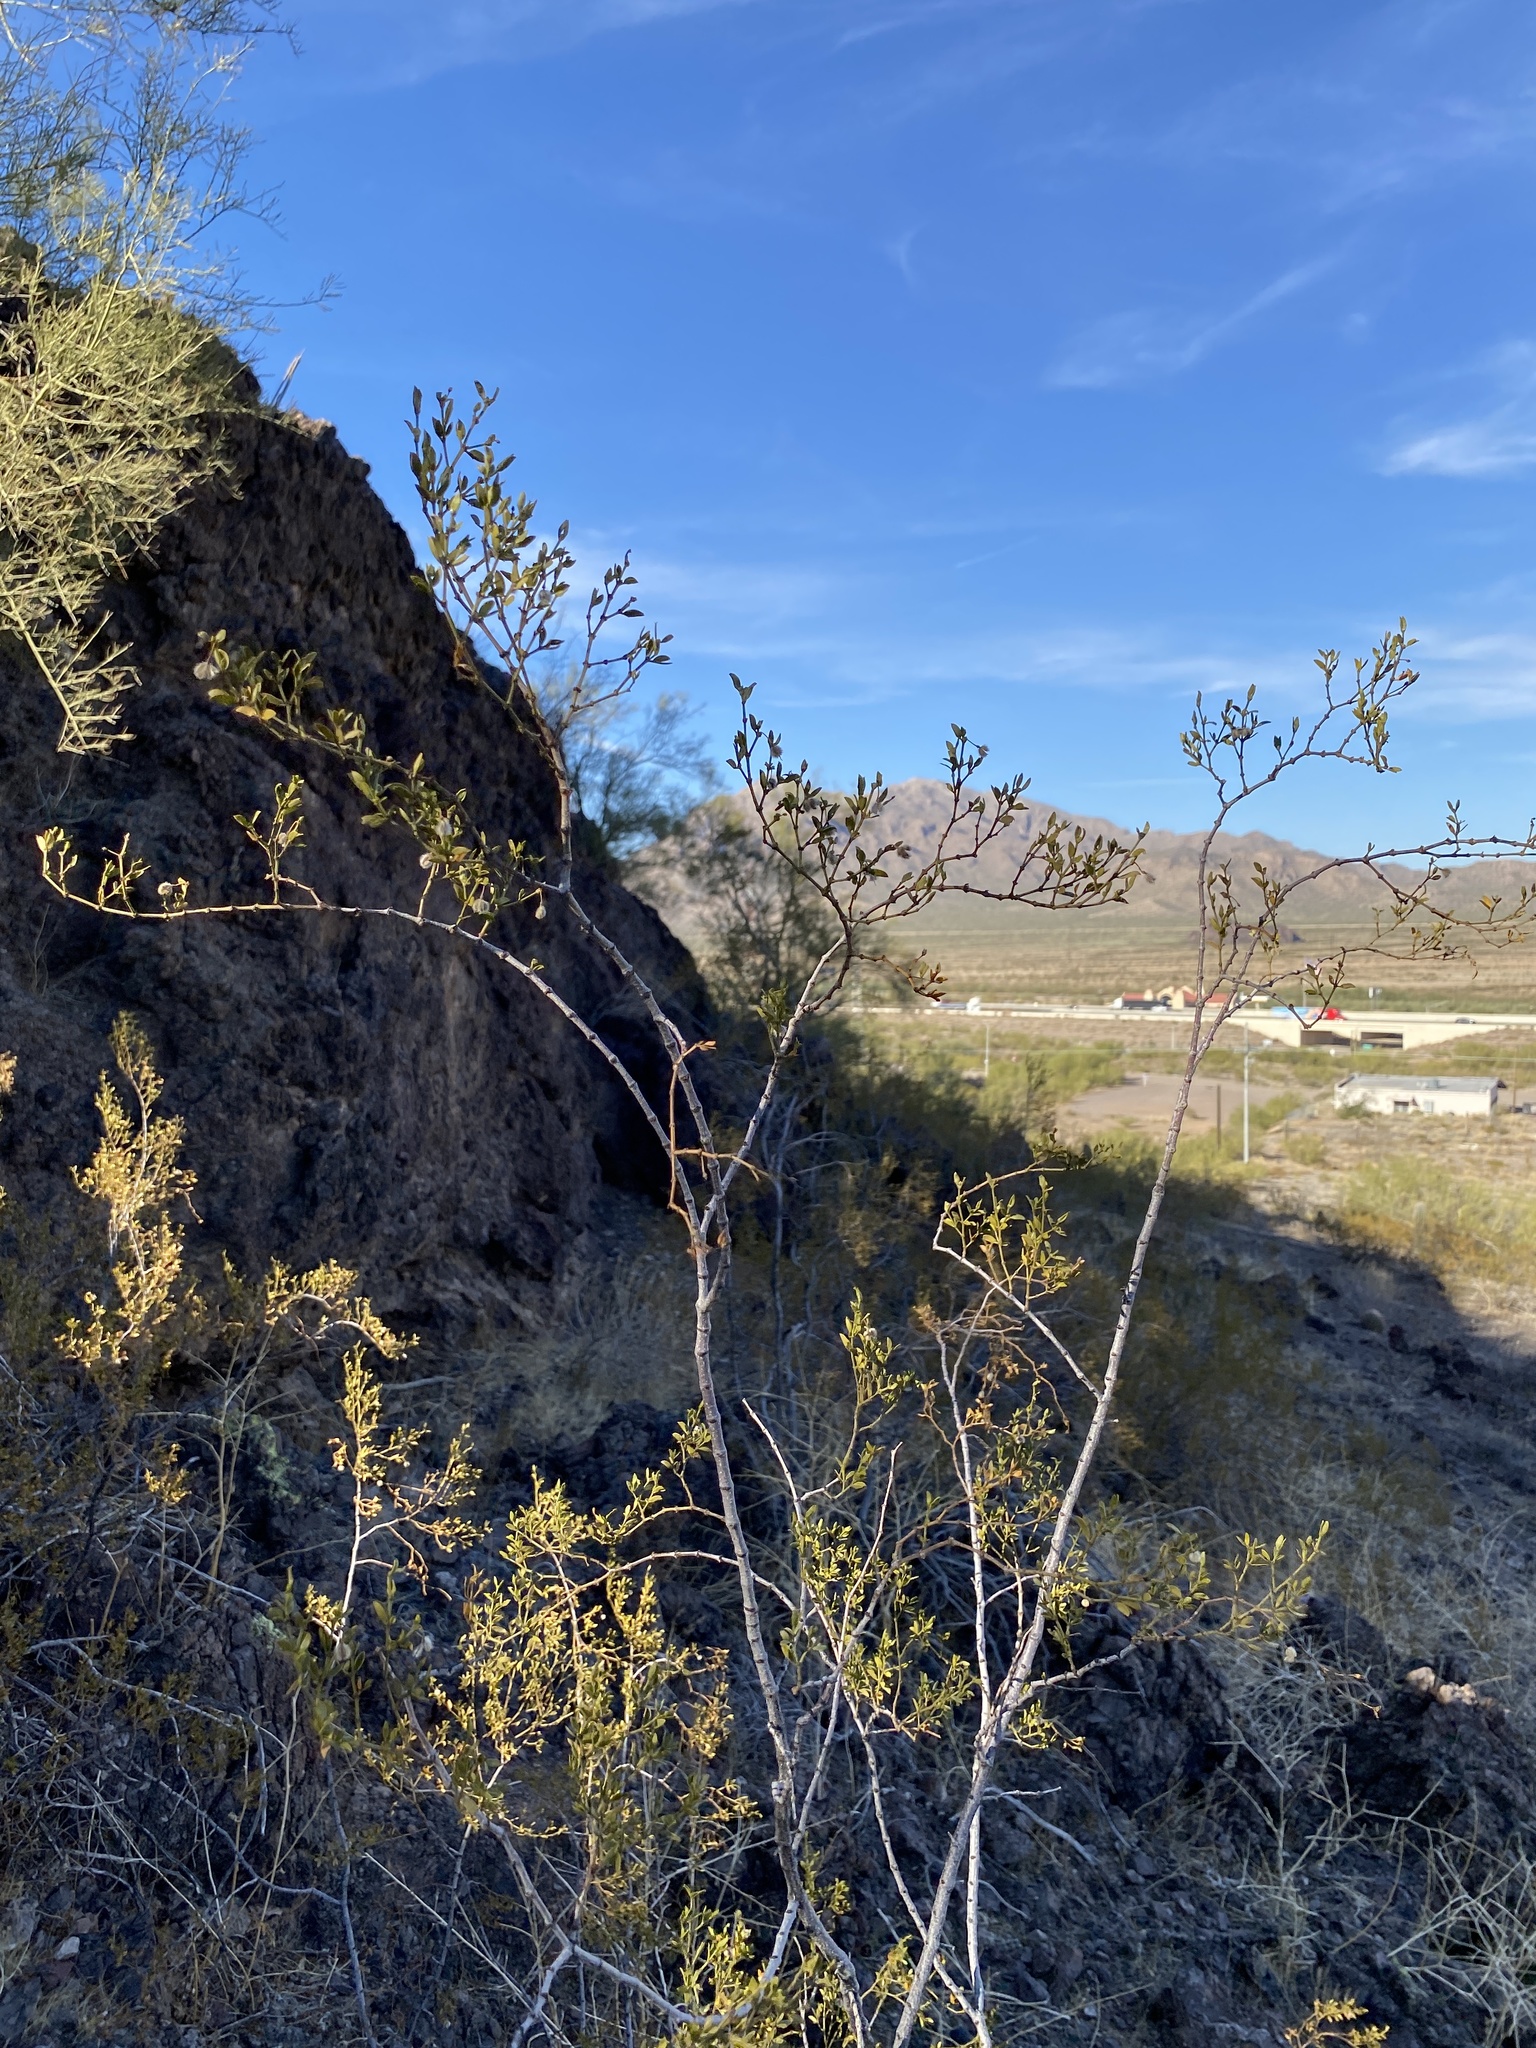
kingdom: Plantae
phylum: Tracheophyta
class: Magnoliopsida
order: Zygophyllales
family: Zygophyllaceae
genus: Larrea
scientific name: Larrea tridentata
